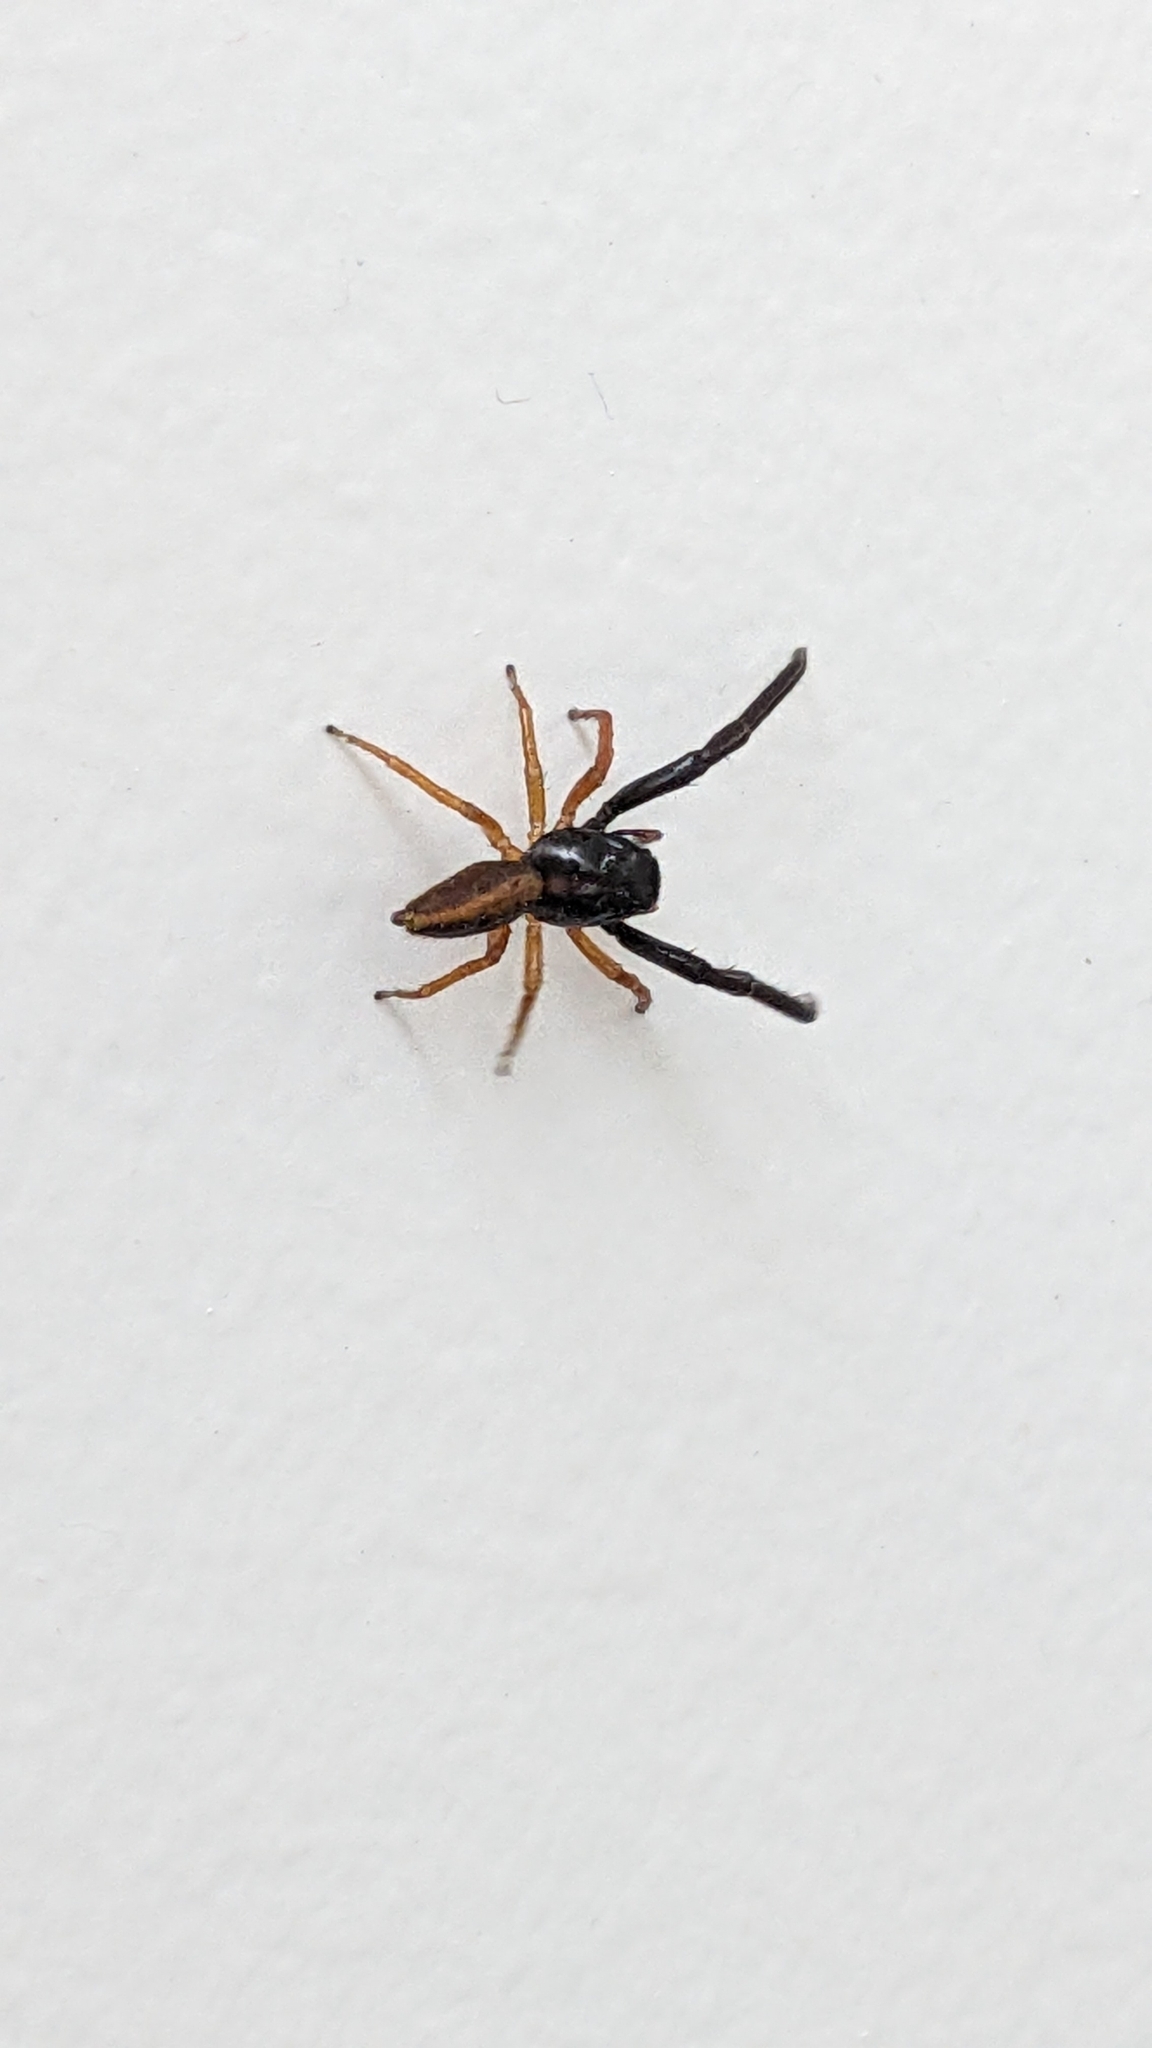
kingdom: Animalia
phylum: Arthropoda
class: Arachnida
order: Araneae
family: Salticidae
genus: Trite
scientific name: Trite planiceps
